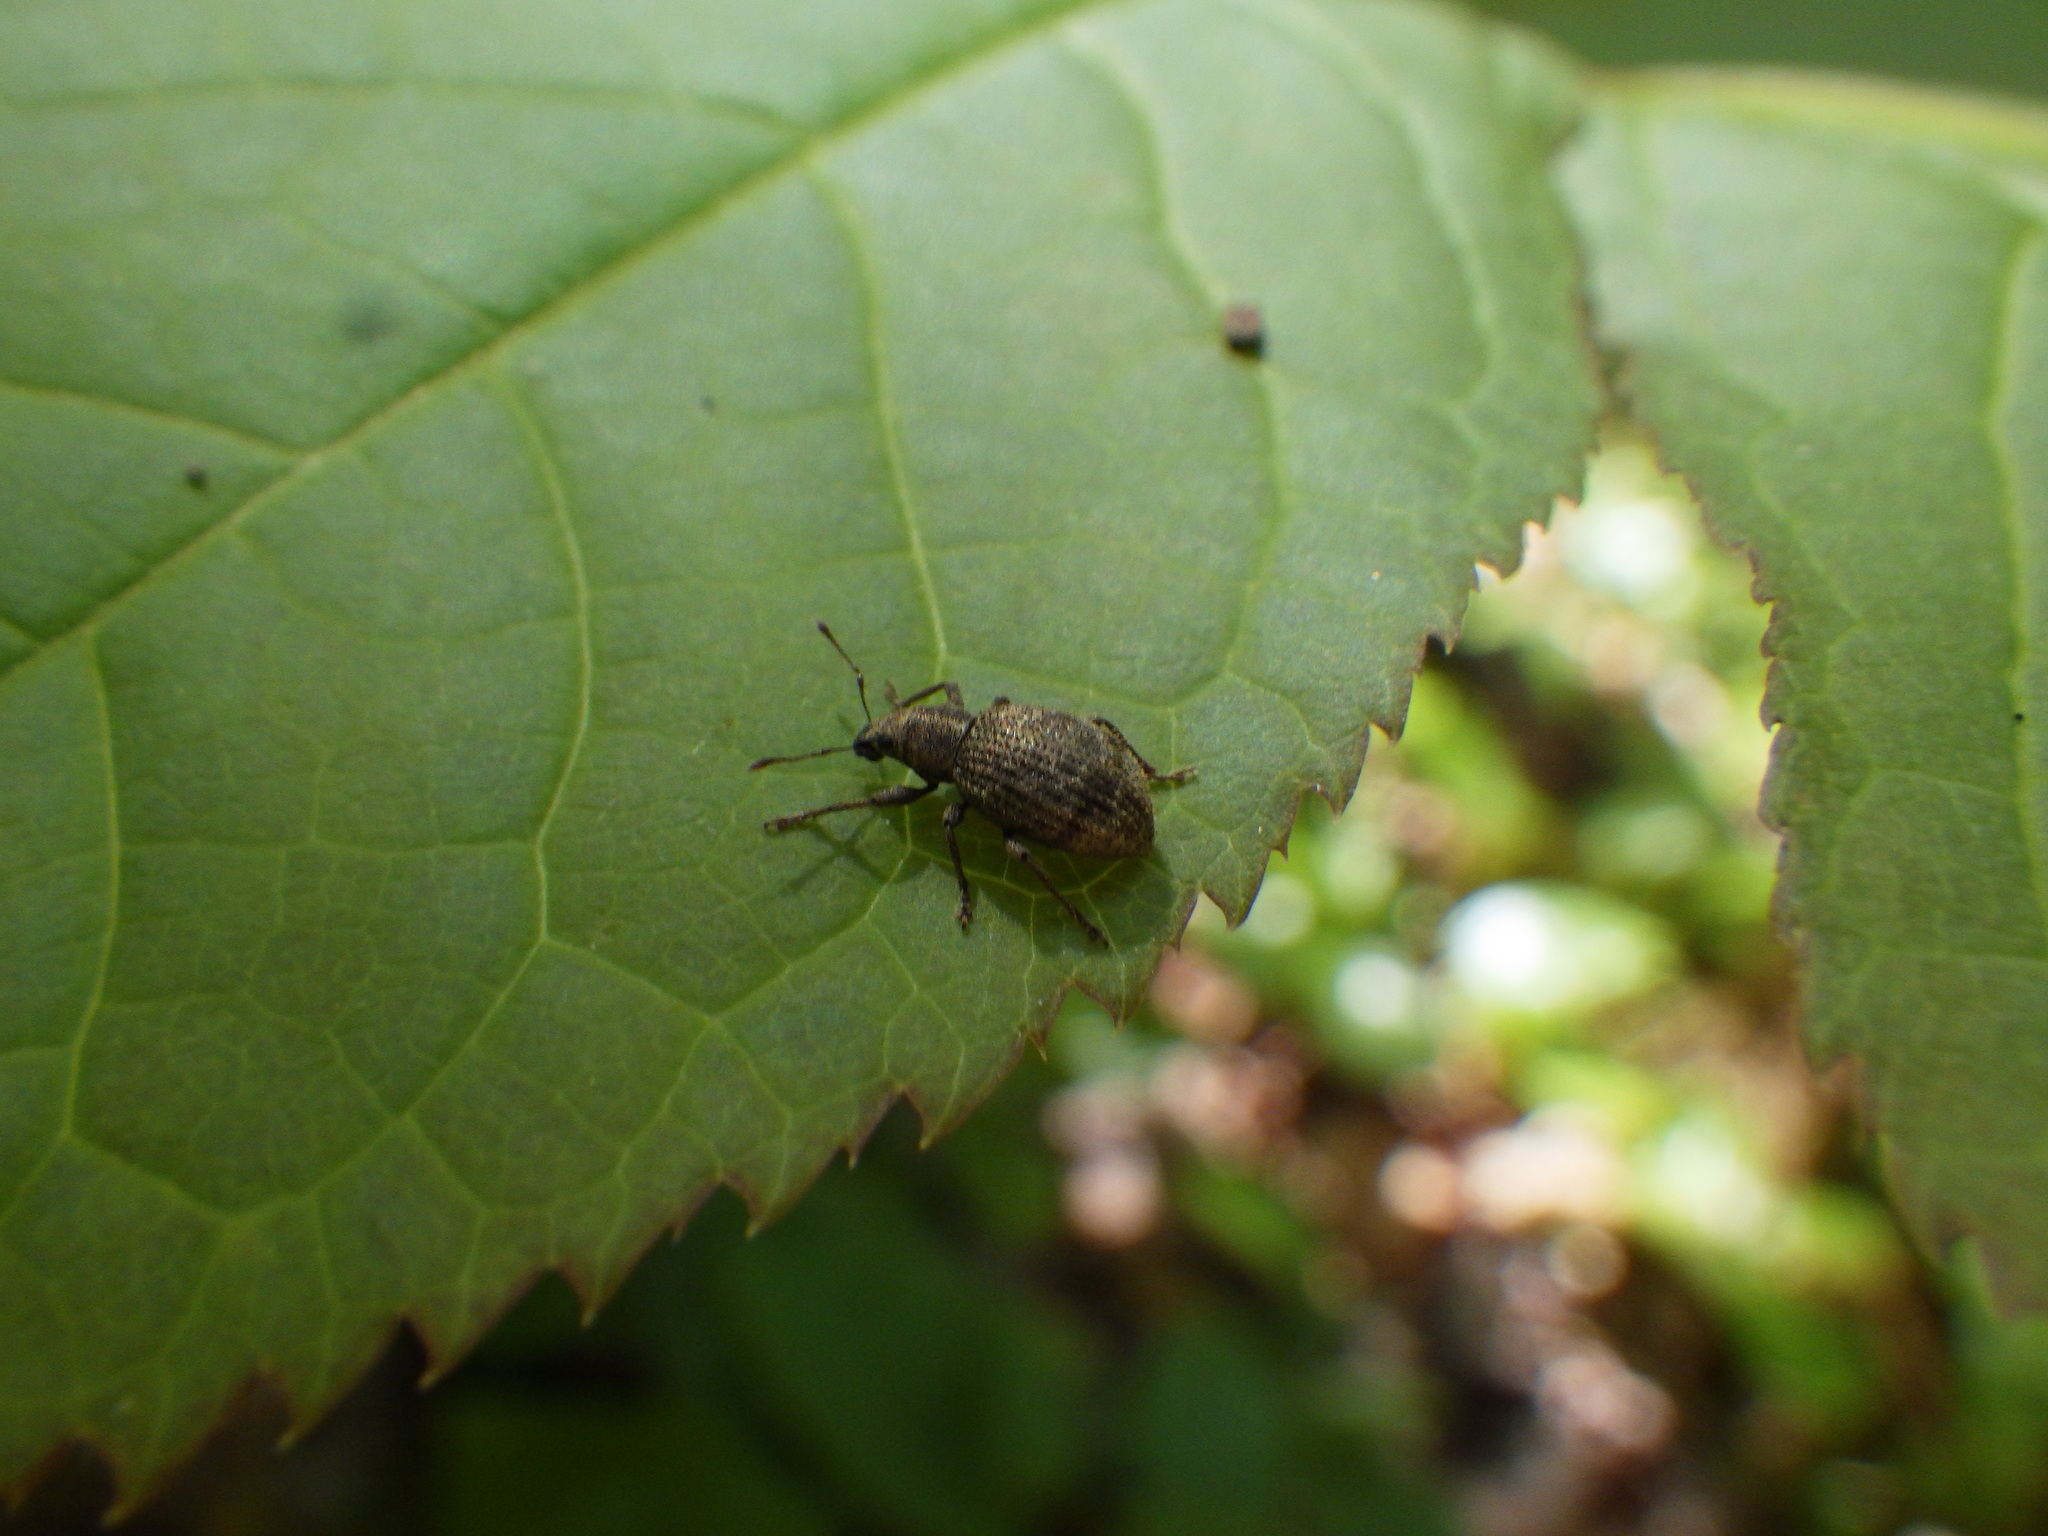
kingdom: Animalia
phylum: Arthropoda
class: Insecta
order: Coleoptera
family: Curculionidae
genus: Sciaphilus
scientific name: Sciaphilus asperatus
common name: Weevil
